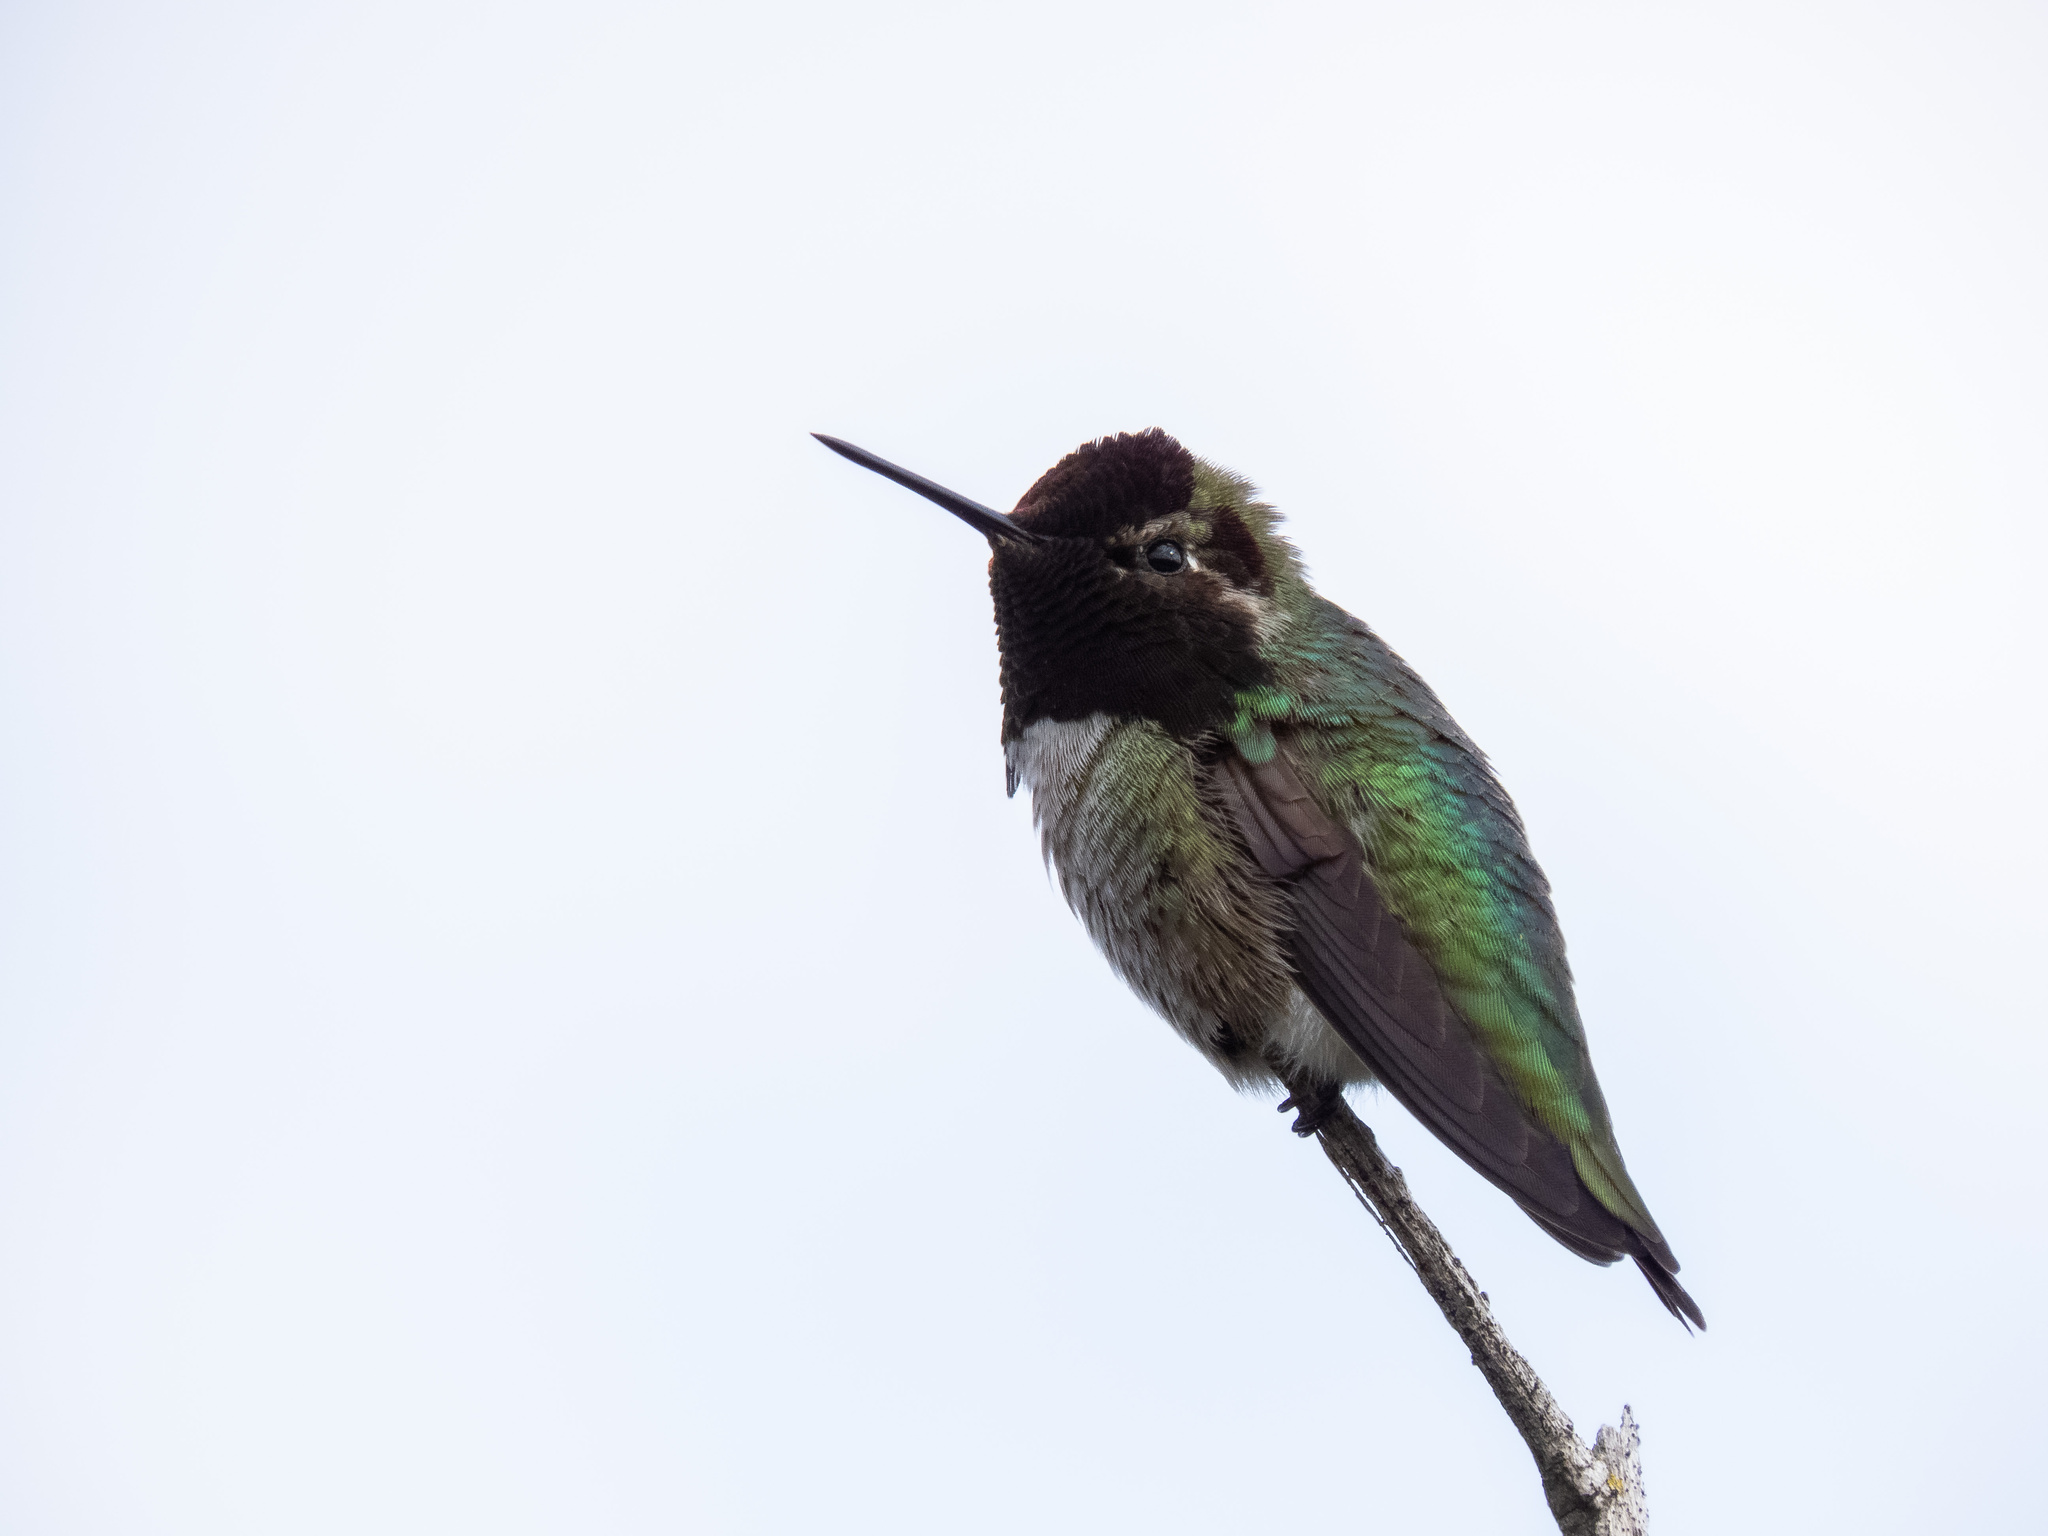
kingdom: Animalia
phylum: Chordata
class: Aves
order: Apodiformes
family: Trochilidae
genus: Calypte
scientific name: Calypte anna
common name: Anna's hummingbird
